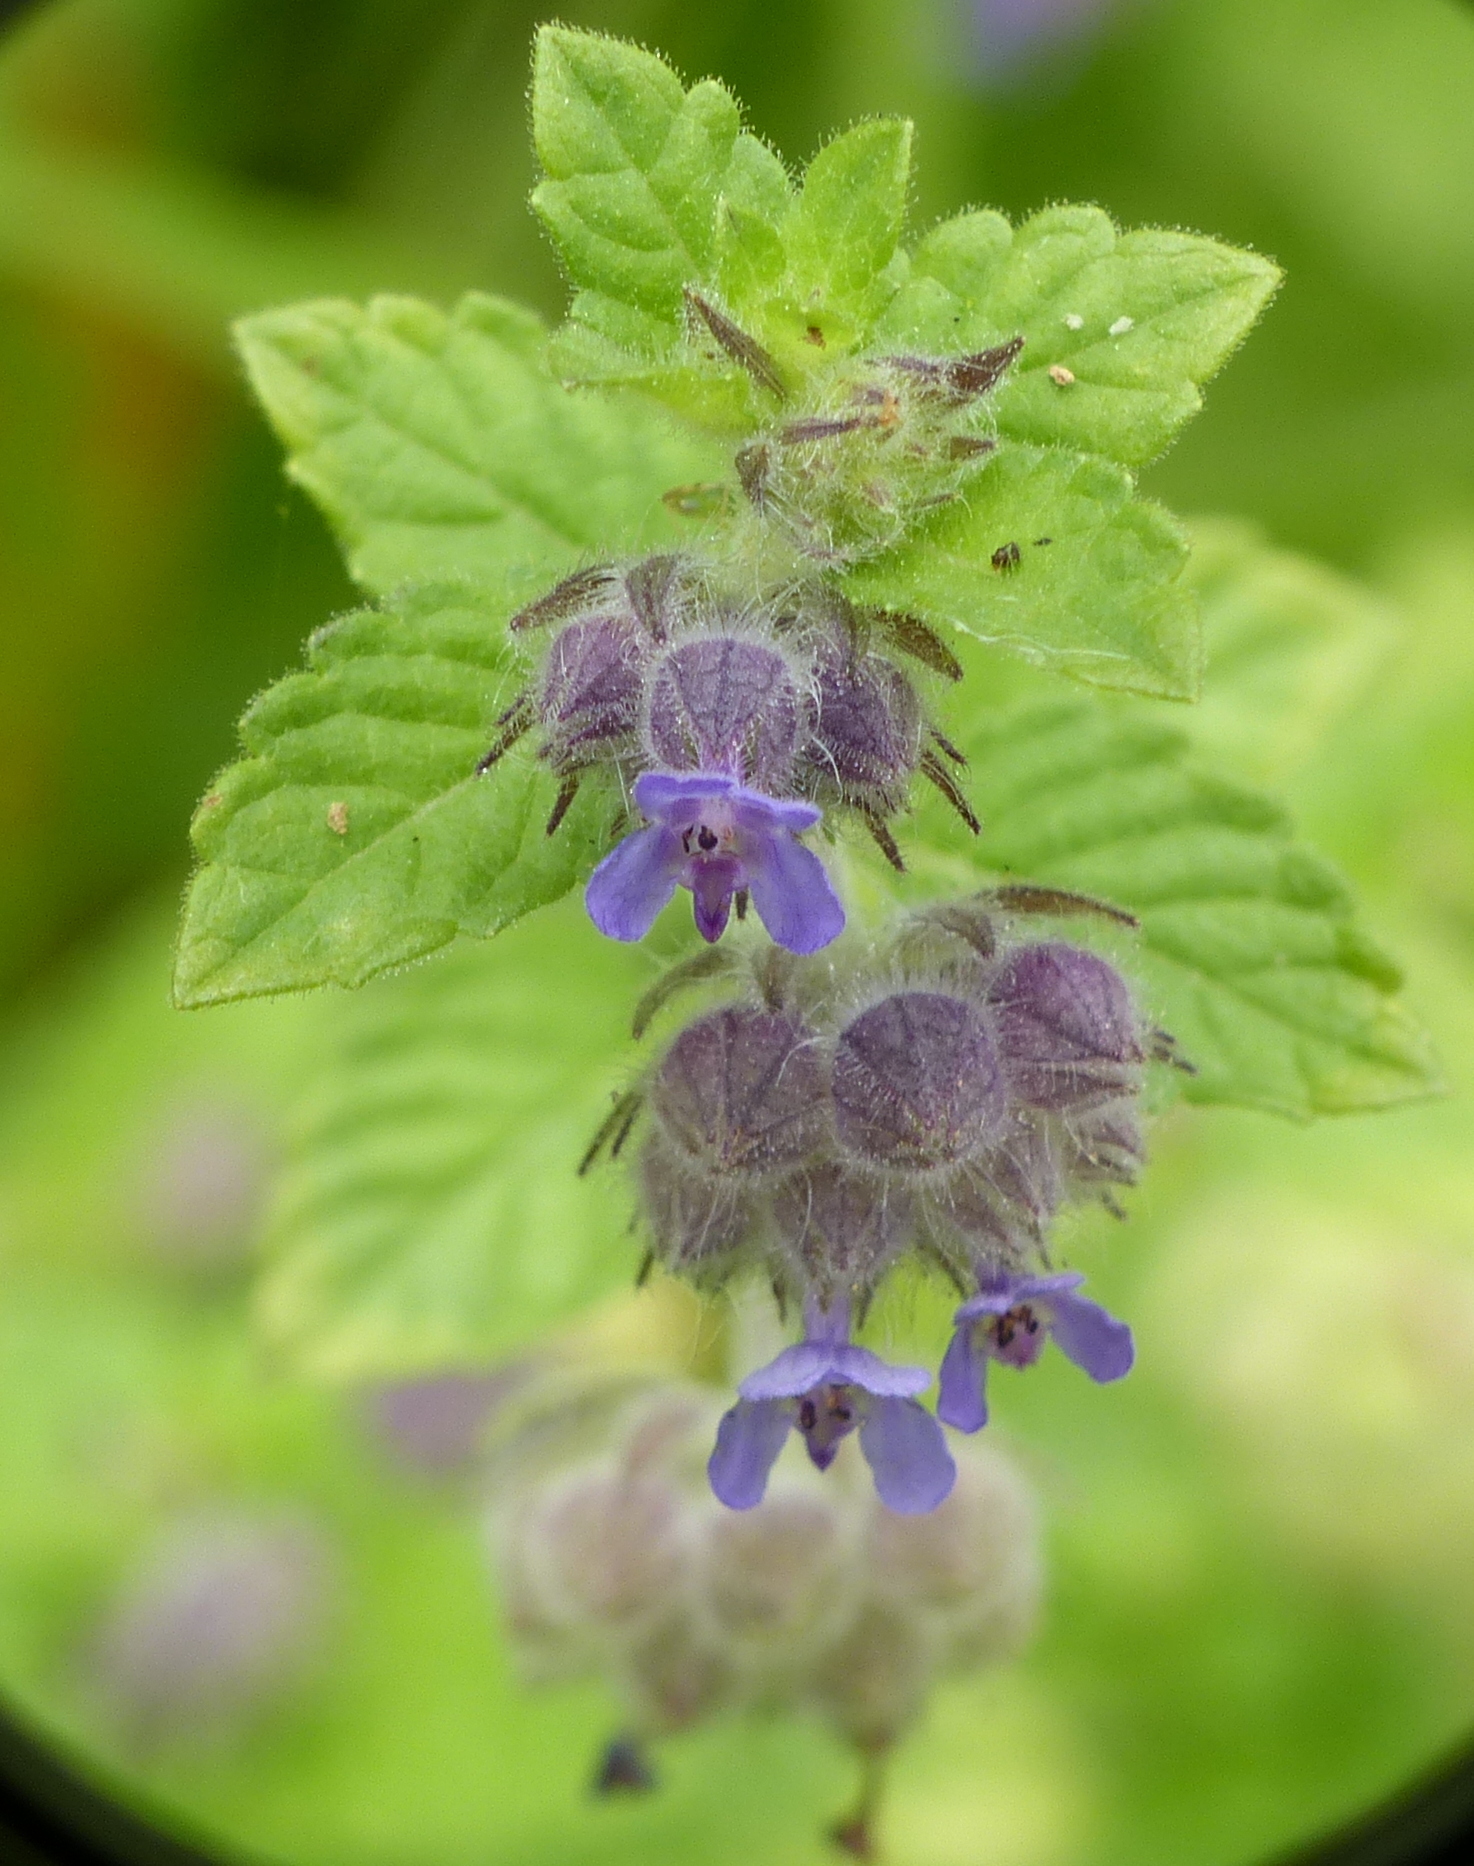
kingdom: Plantae
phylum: Tracheophyta
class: Magnoliopsida
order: Lamiales
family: Lamiaceae
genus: Marsypianthes
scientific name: Marsypianthes chamaedrys
